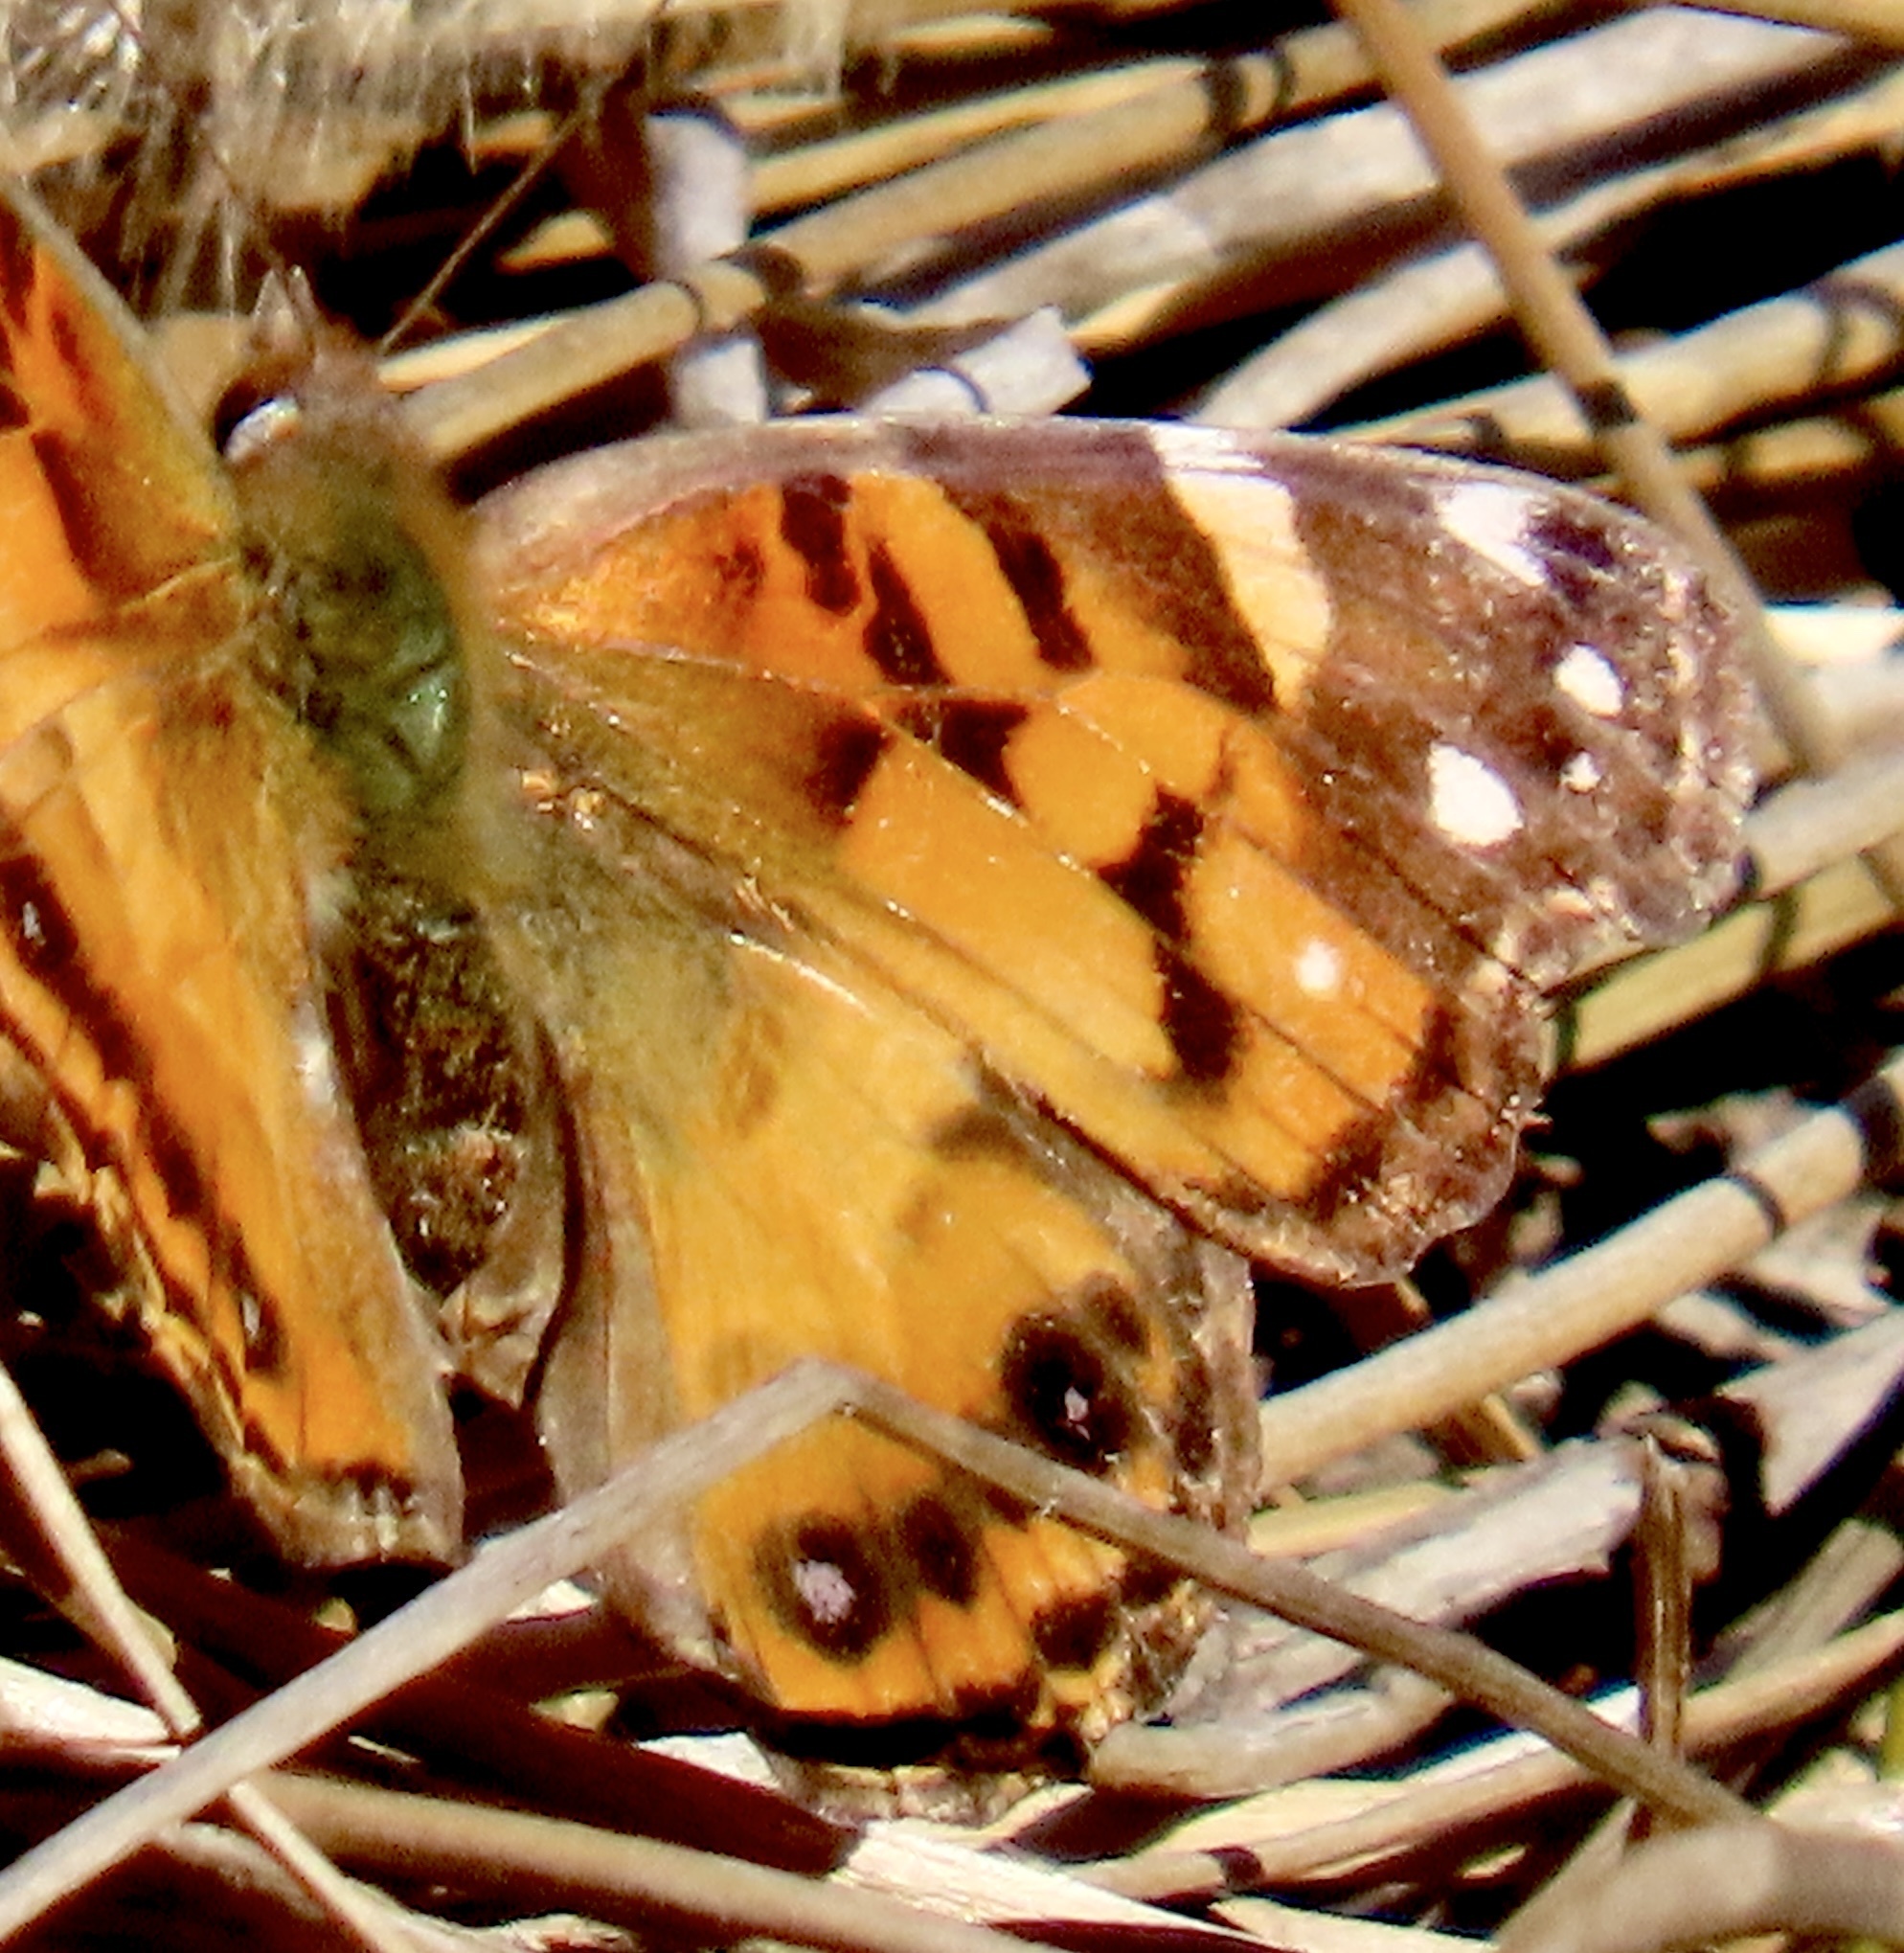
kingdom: Animalia
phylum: Arthropoda
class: Insecta
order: Lepidoptera
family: Nymphalidae
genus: Vanessa
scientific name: Vanessa virginiensis
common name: American lady
